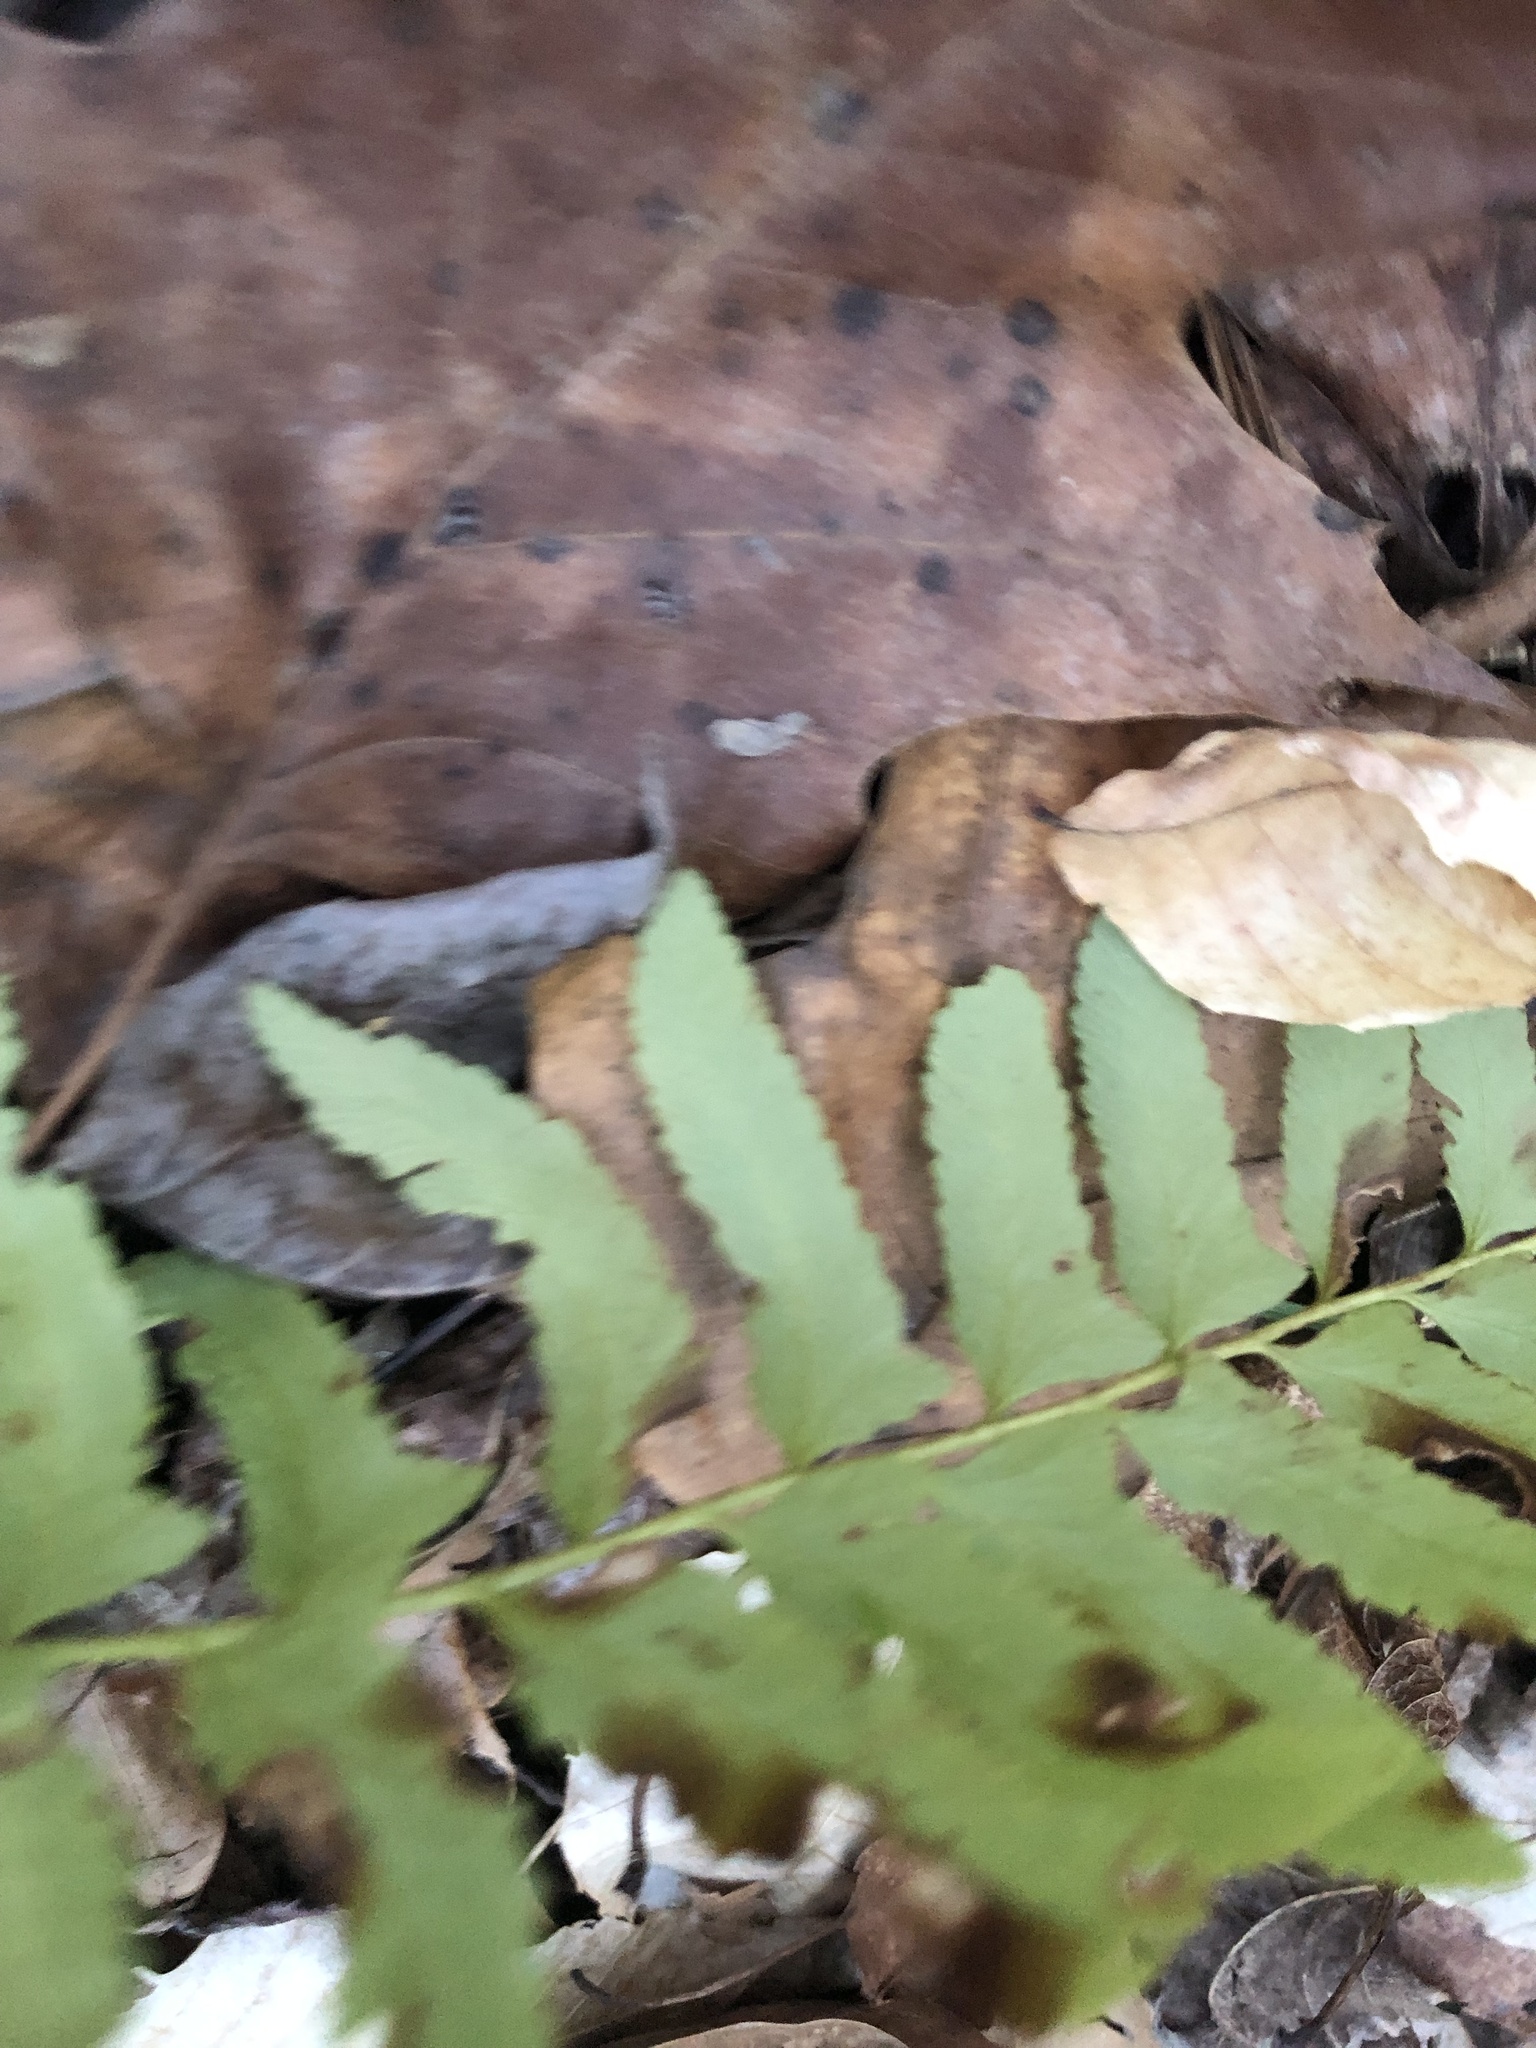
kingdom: Plantae
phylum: Tracheophyta
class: Polypodiopsida
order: Polypodiales
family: Dryopteridaceae
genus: Polystichum
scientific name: Polystichum acrostichoides
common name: Christmas fern
